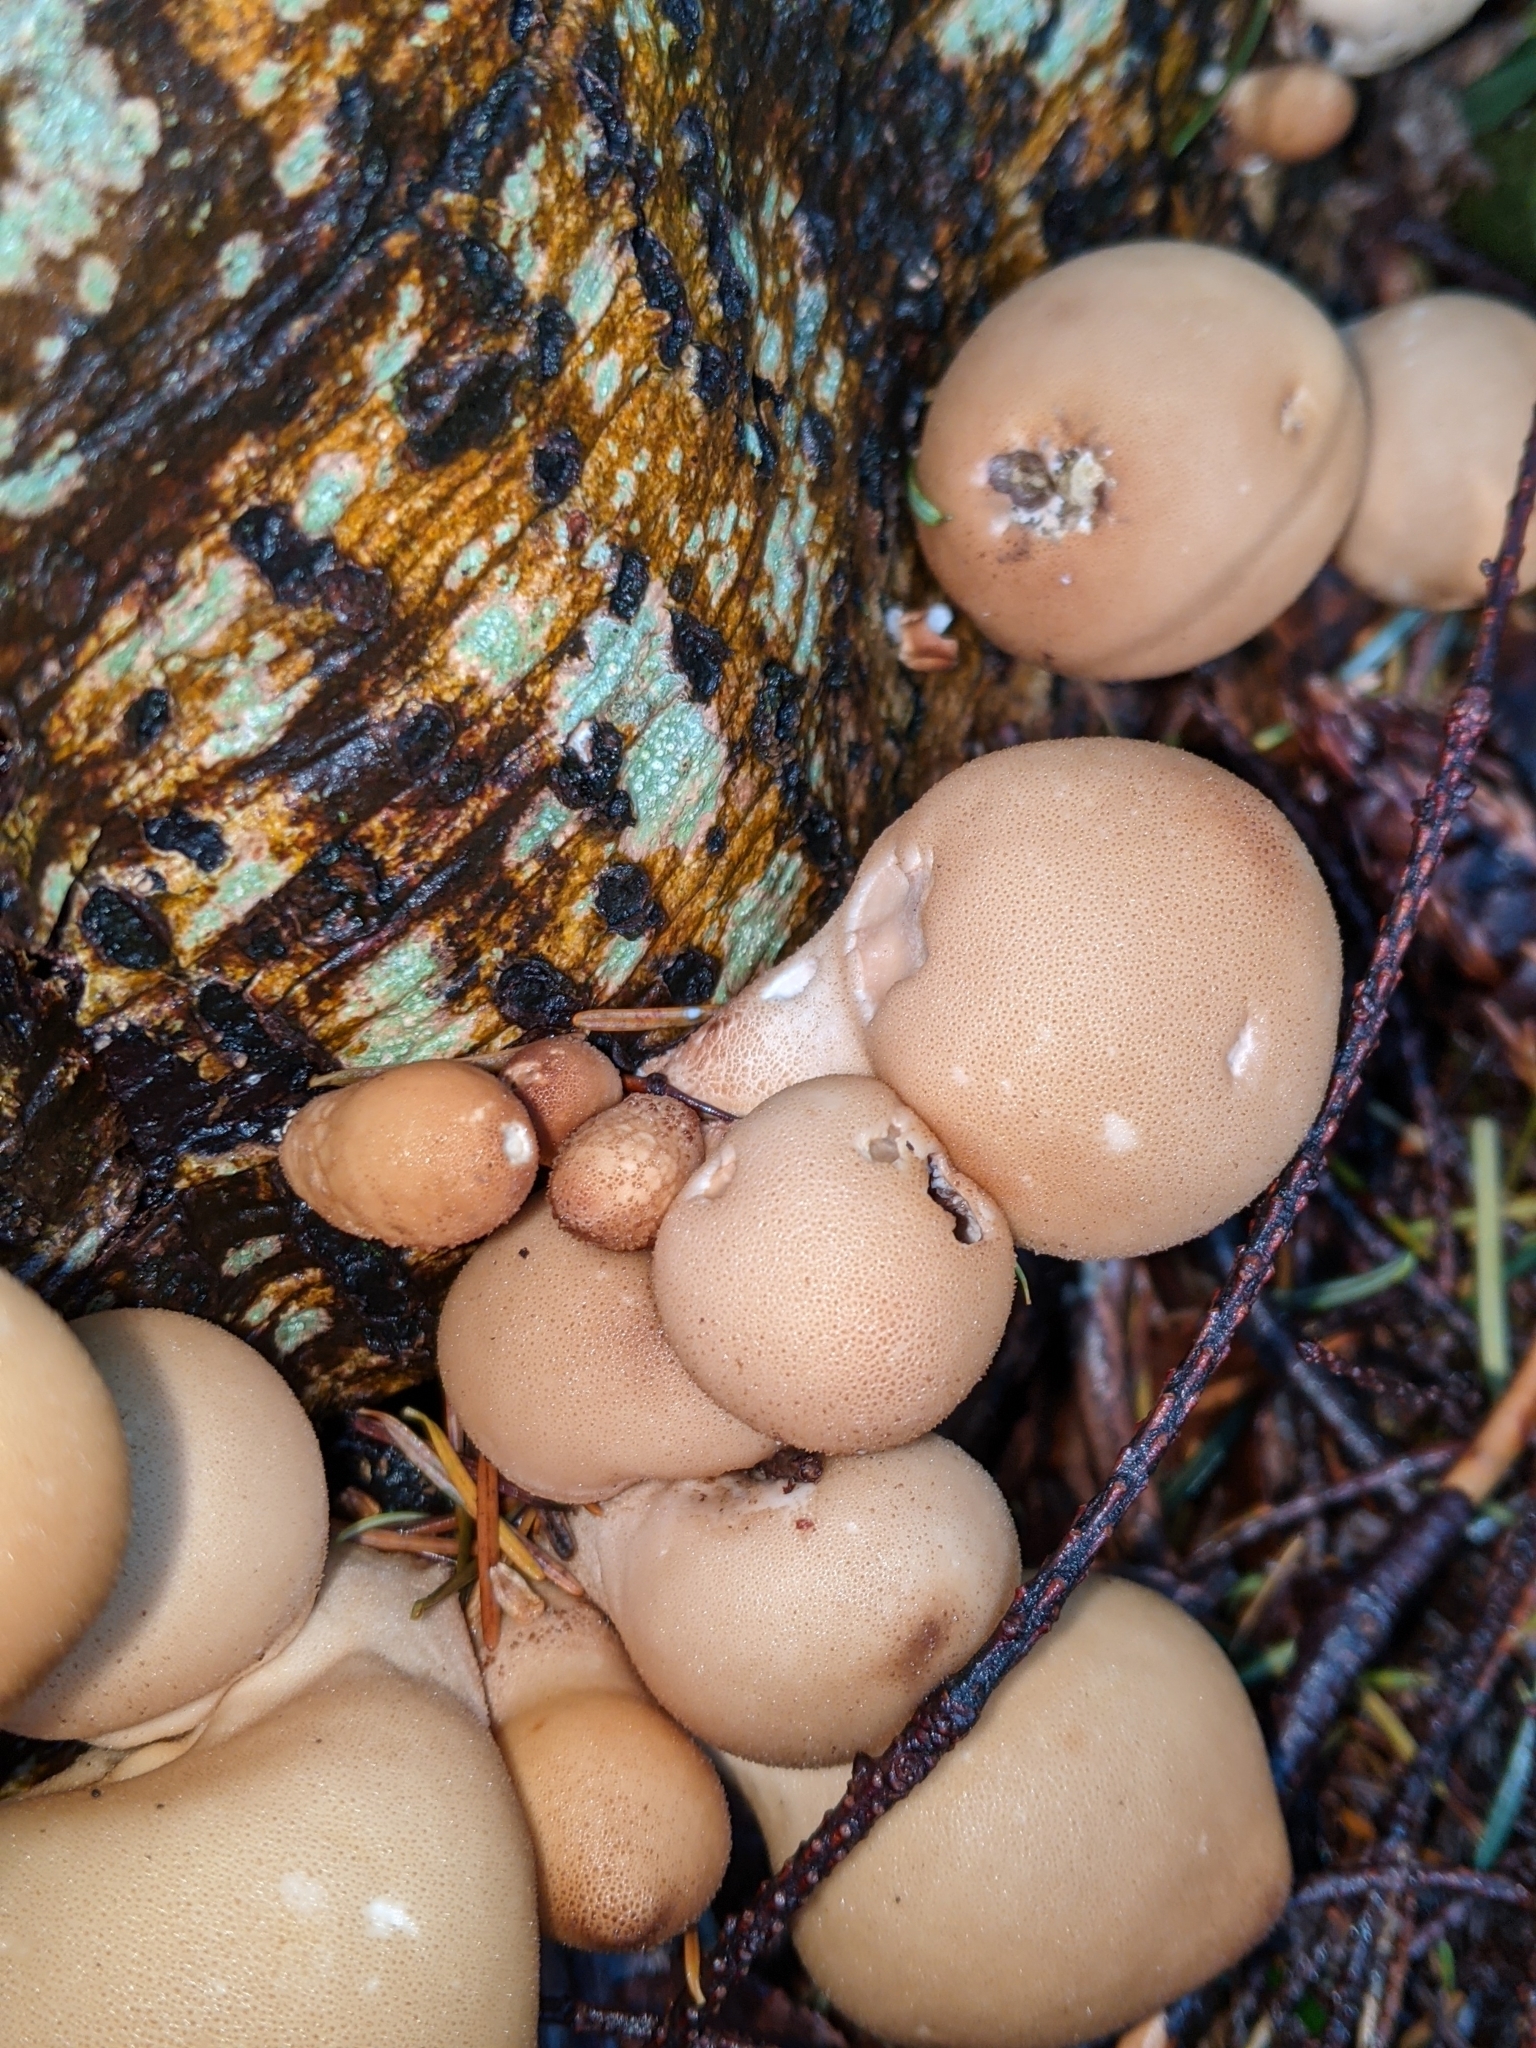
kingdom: Fungi
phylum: Basidiomycota
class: Agaricomycetes
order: Agaricales
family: Lycoperdaceae
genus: Apioperdon
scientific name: Apioperdon pyriforme
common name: Pear-shaped puffball
